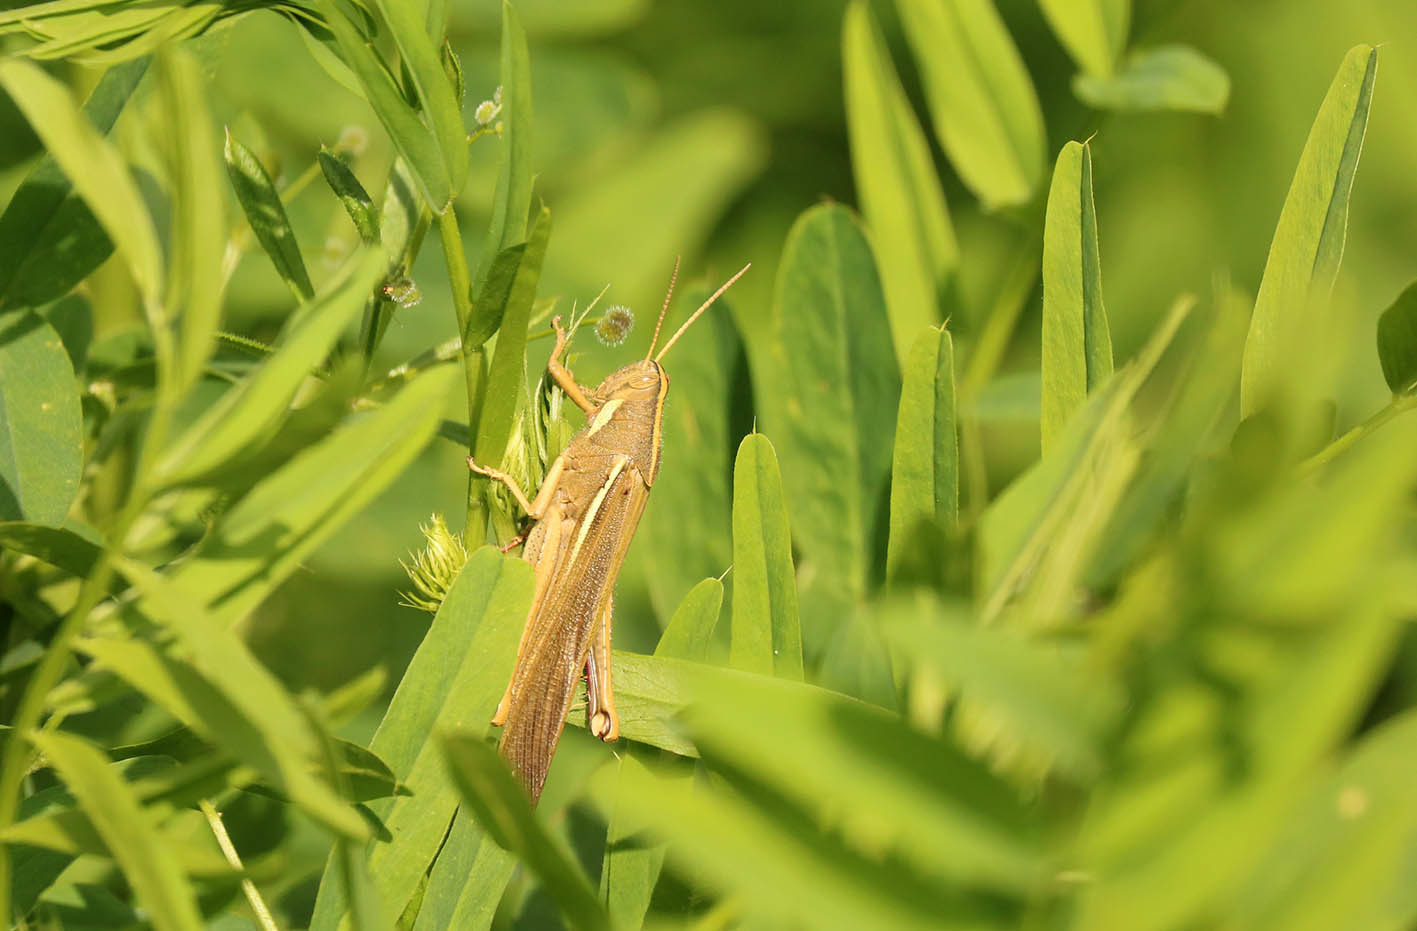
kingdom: Animalia
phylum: Arthropoda
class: Insecta
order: Orthoptera
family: Acrididae
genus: Schistocerca
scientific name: Schistocerca flavofasciata
